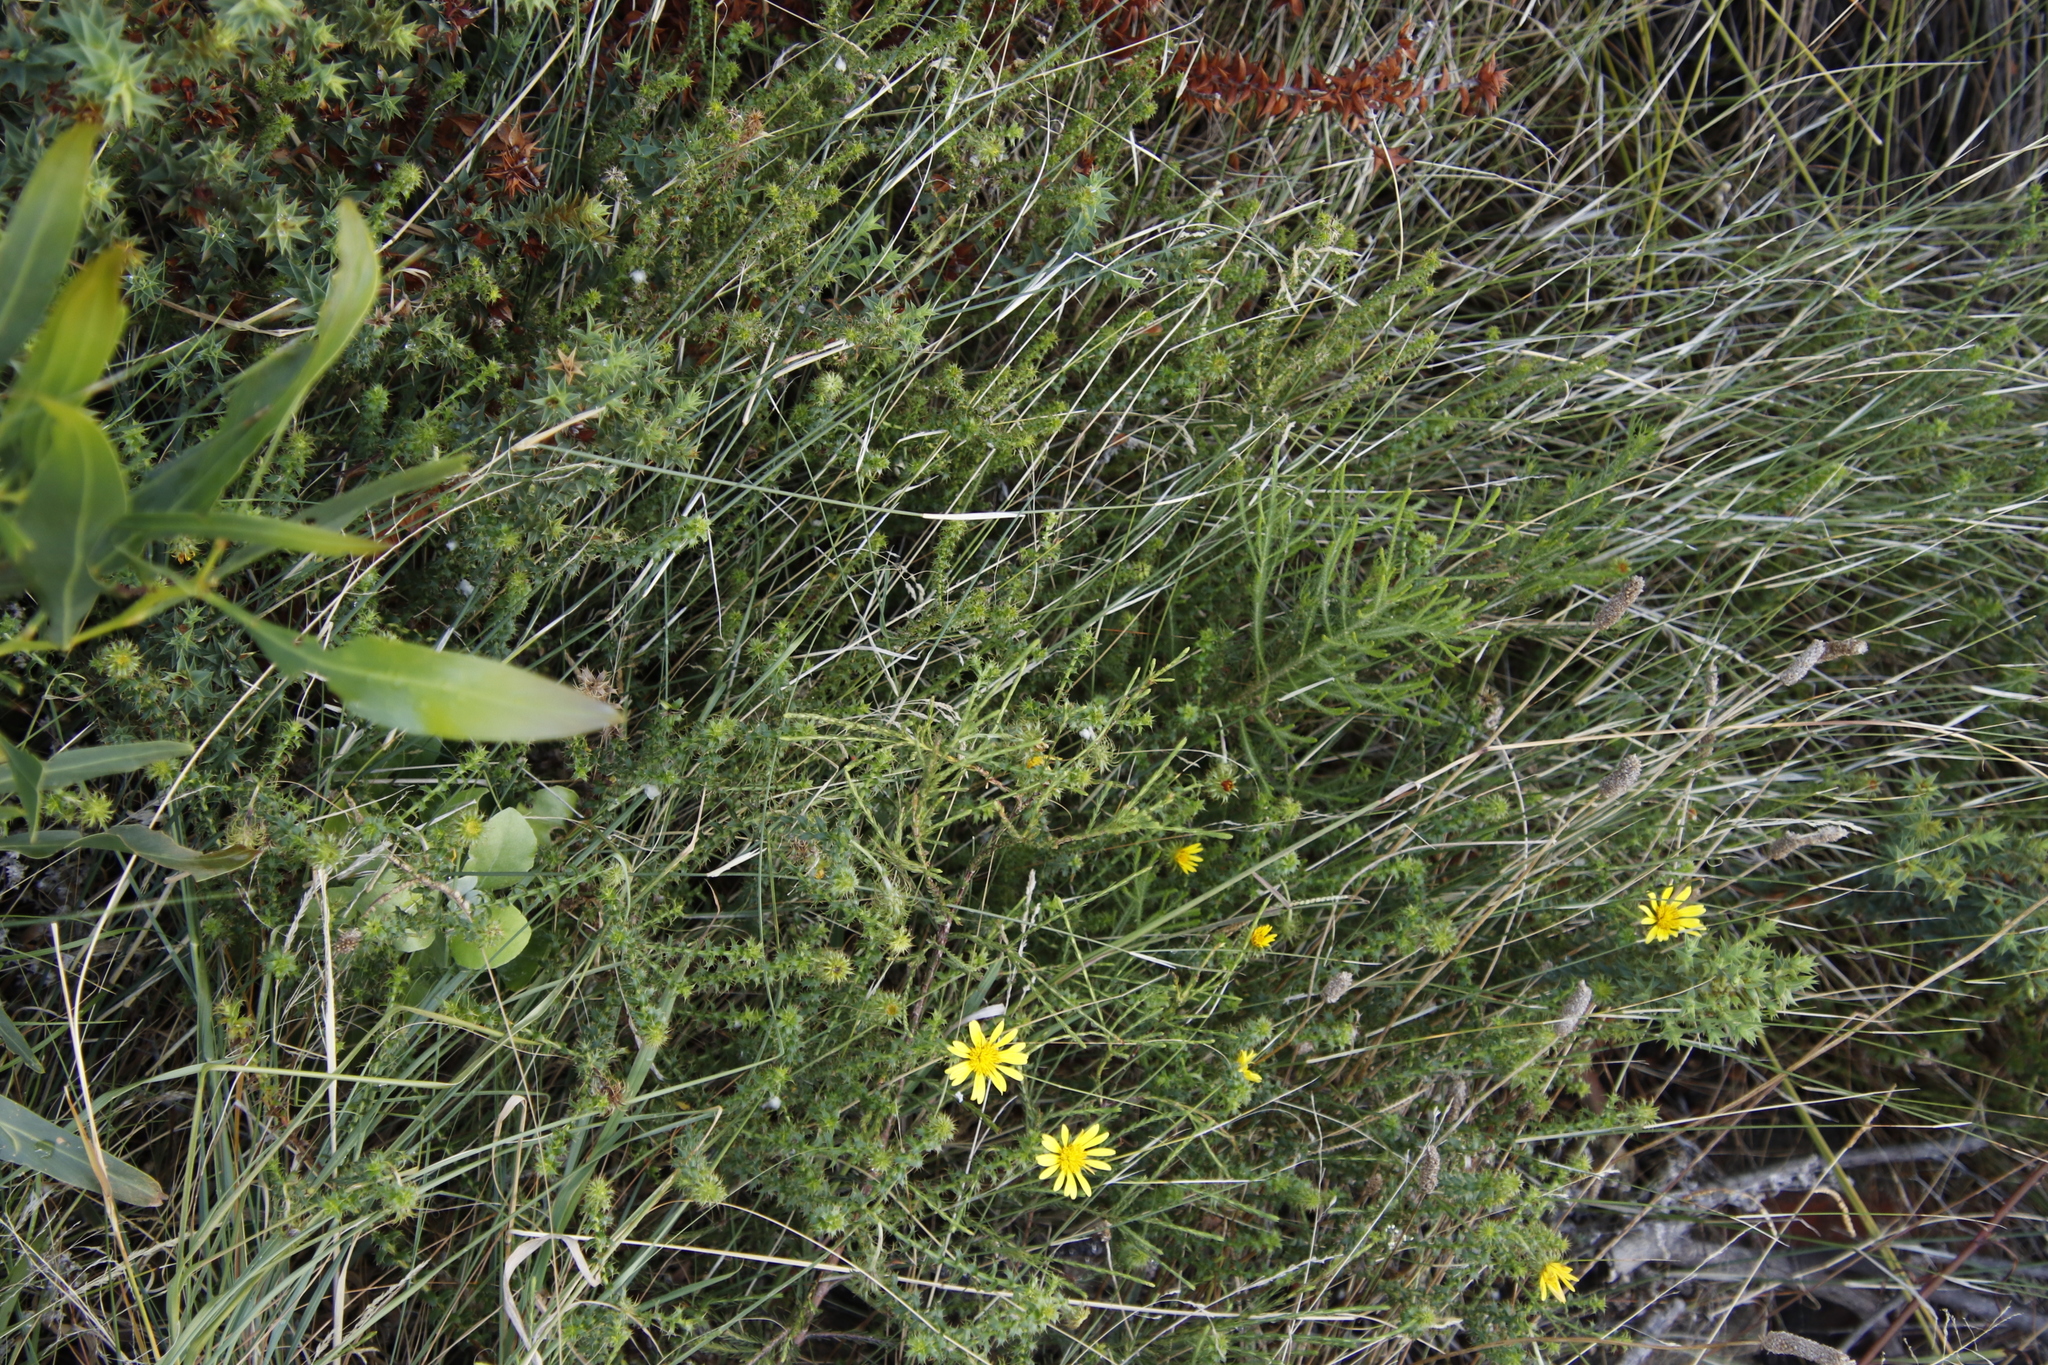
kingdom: Plantae
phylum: Tracheophyta
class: Magnoliopsida
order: Asterales
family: Asteraceae
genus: Cullumia
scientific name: Cullumia setosa
